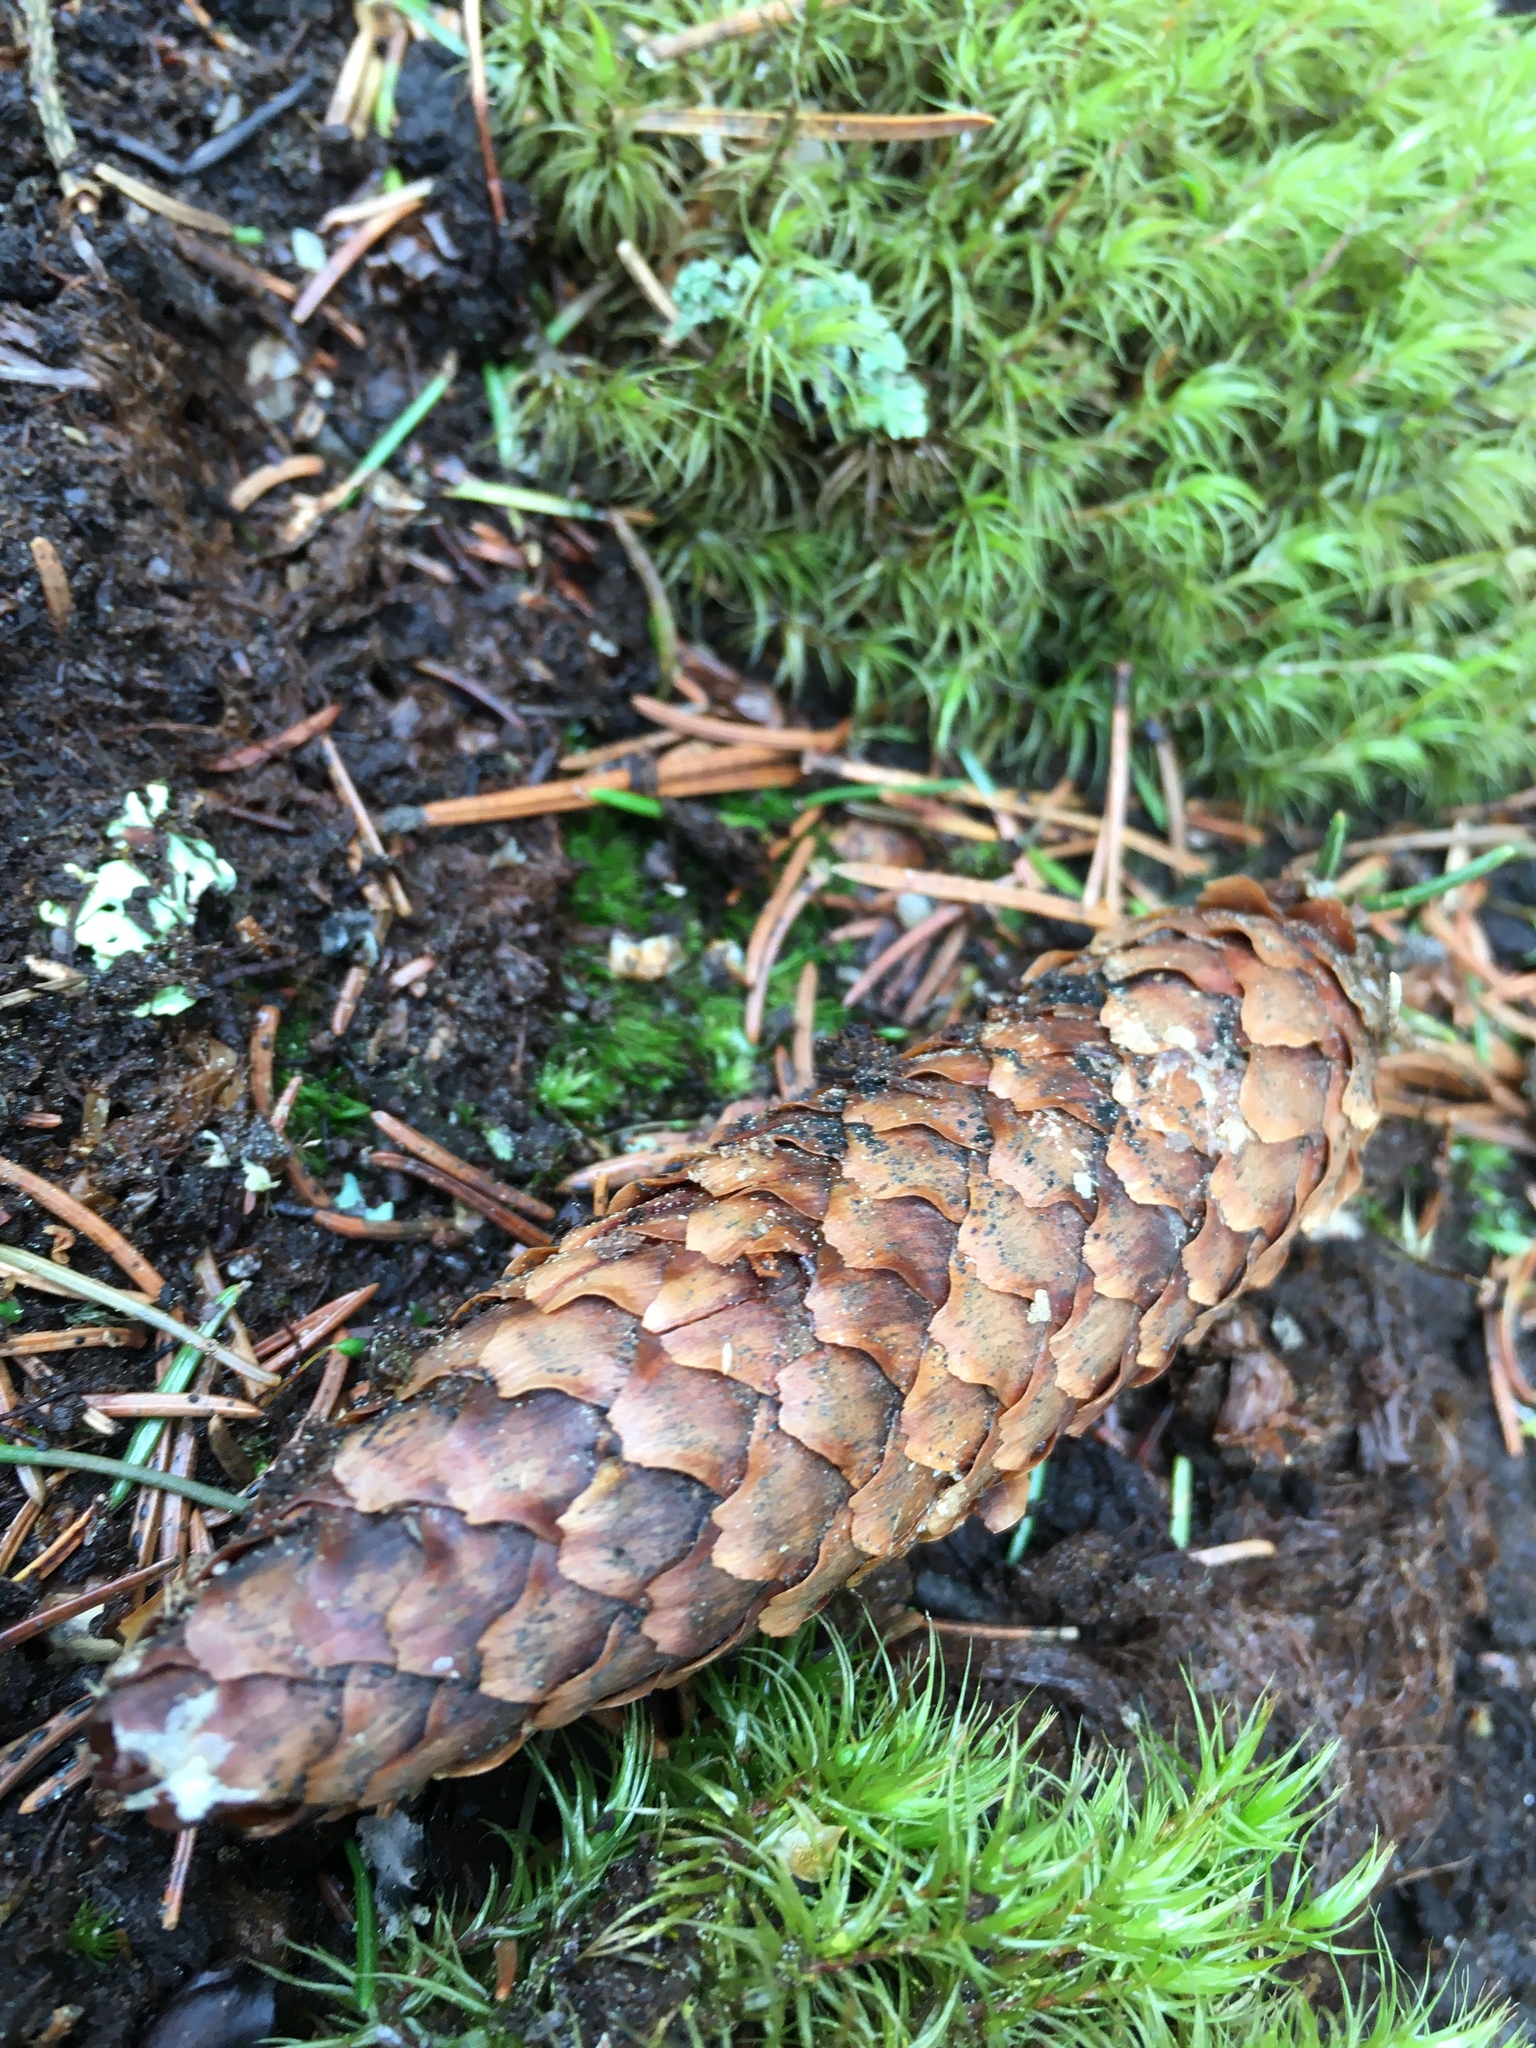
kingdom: Plantae
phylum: Tracheophyta
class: Pinopsida
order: Pinales
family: Pinaceae
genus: Picea
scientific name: Picea abies
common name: Norway spruce
